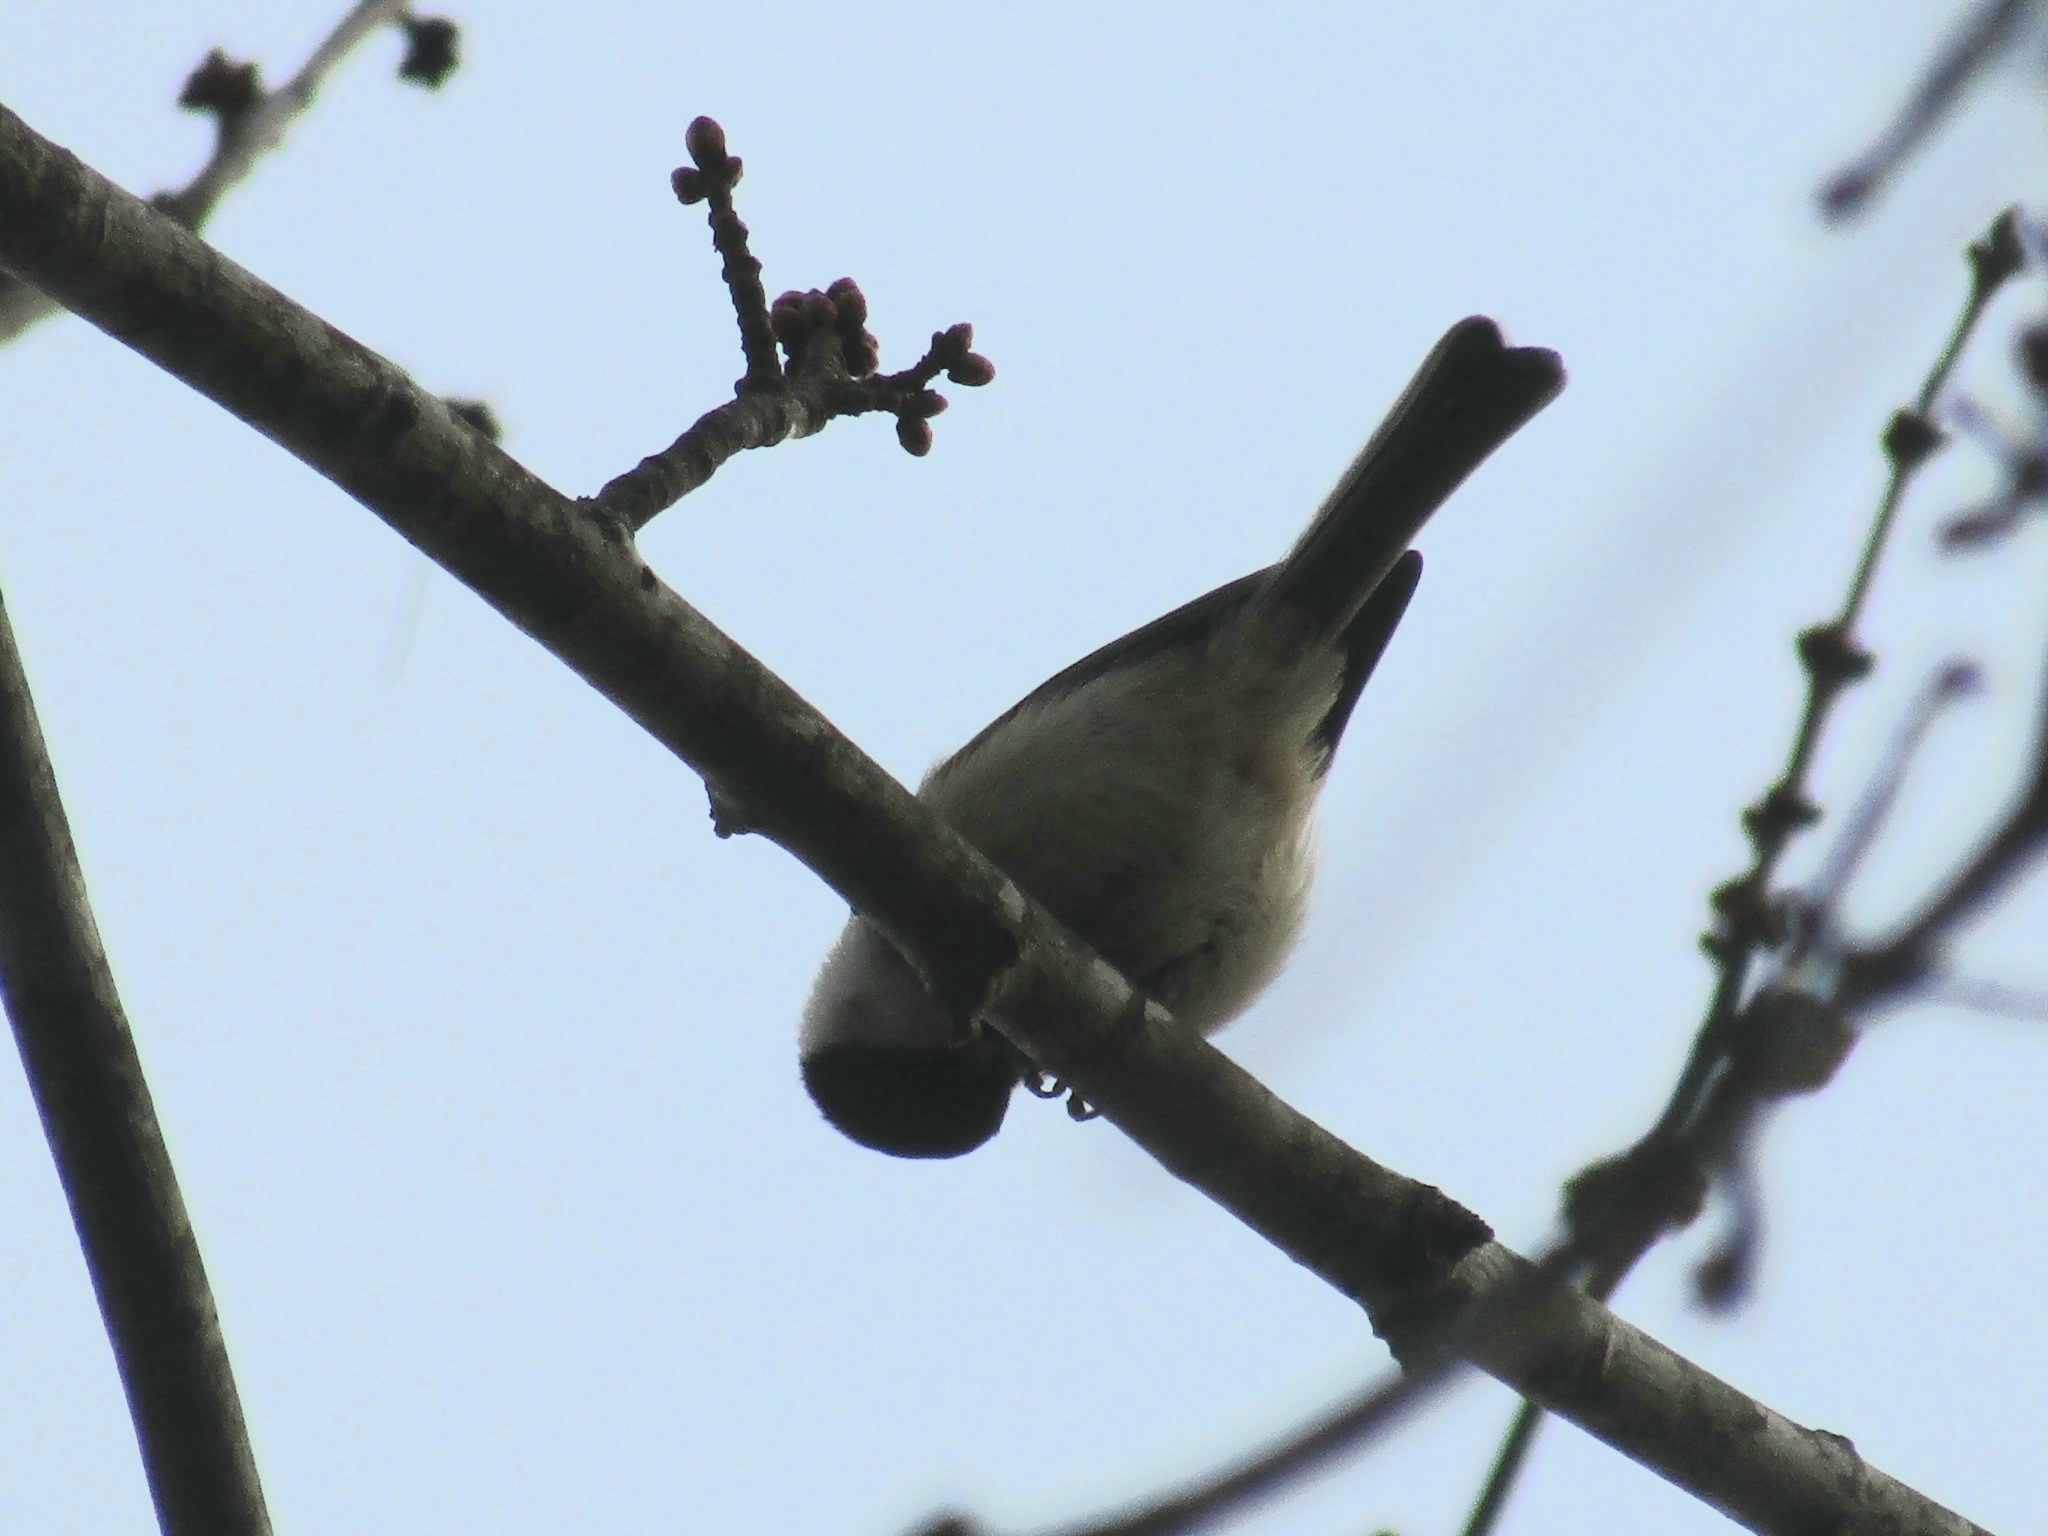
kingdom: Animalia
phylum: Chordata
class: Aves
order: Passeriformes
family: Paridae
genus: Poecile
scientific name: Poecile carolinensis
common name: Carolina chickadee
